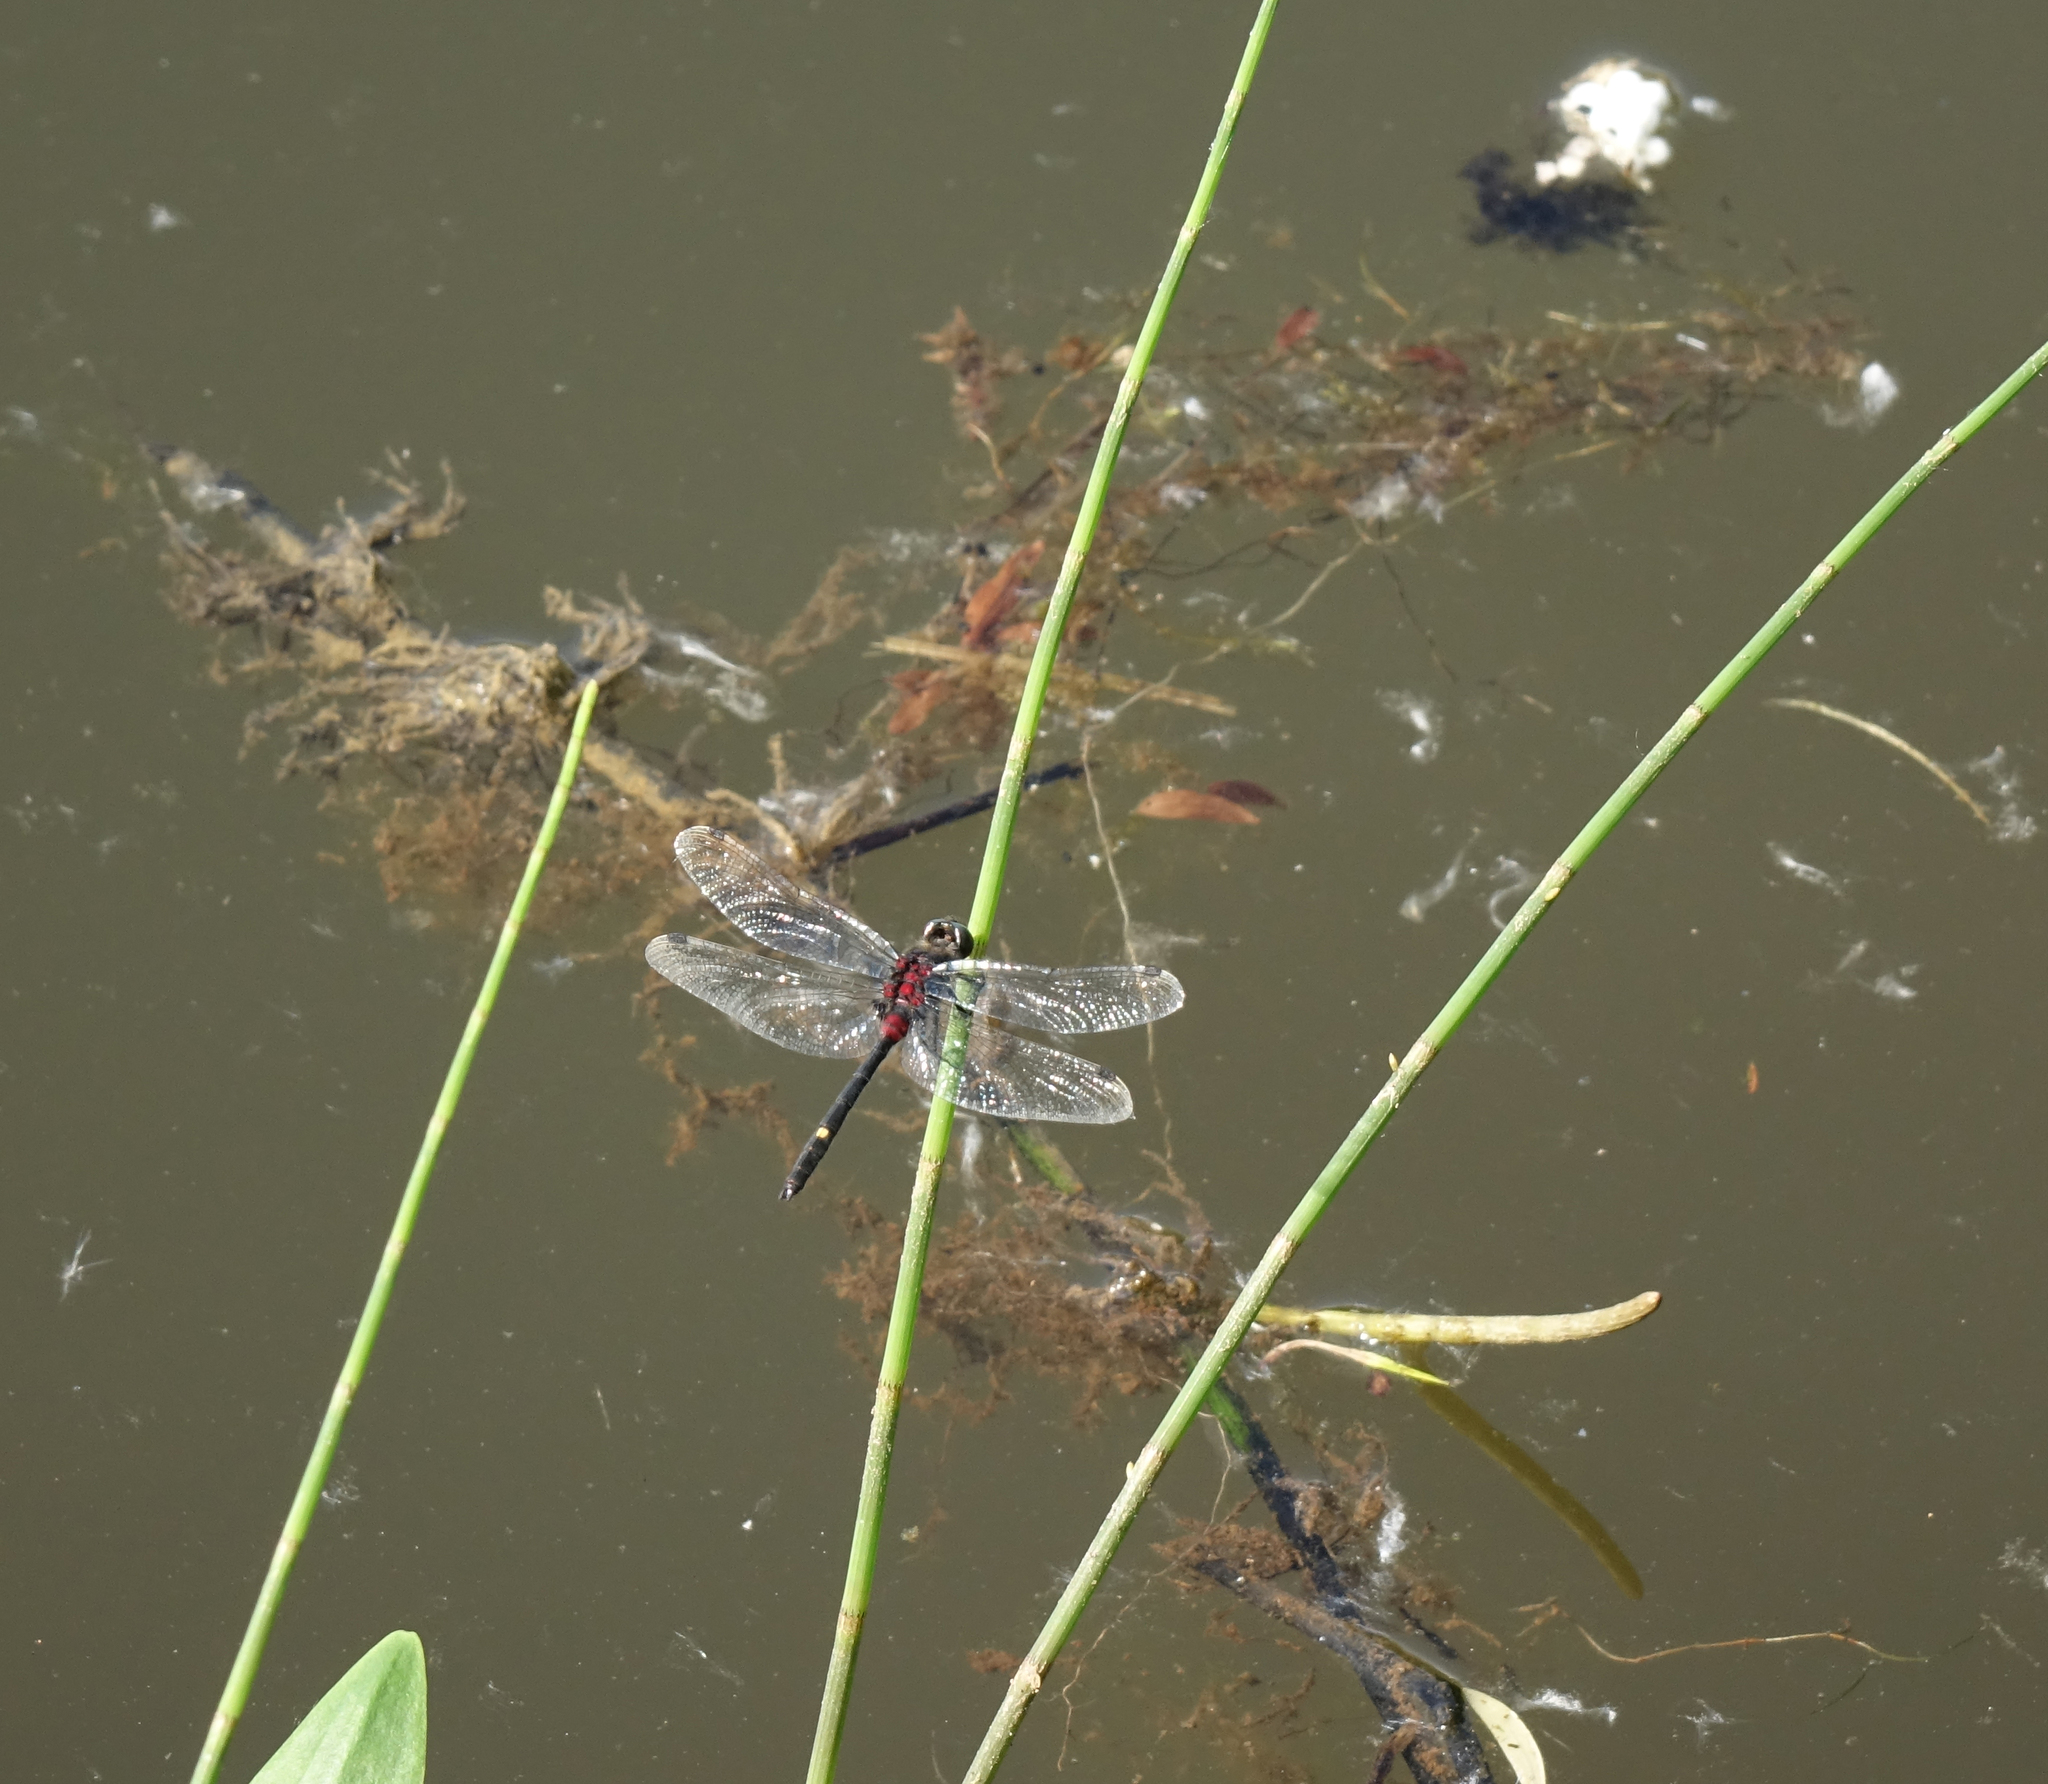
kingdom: Animalia
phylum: Arthropoda
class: Insecta
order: Odonata
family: Libellulidae
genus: Leucorrhinia
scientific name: Leucorrhinia orientalis
